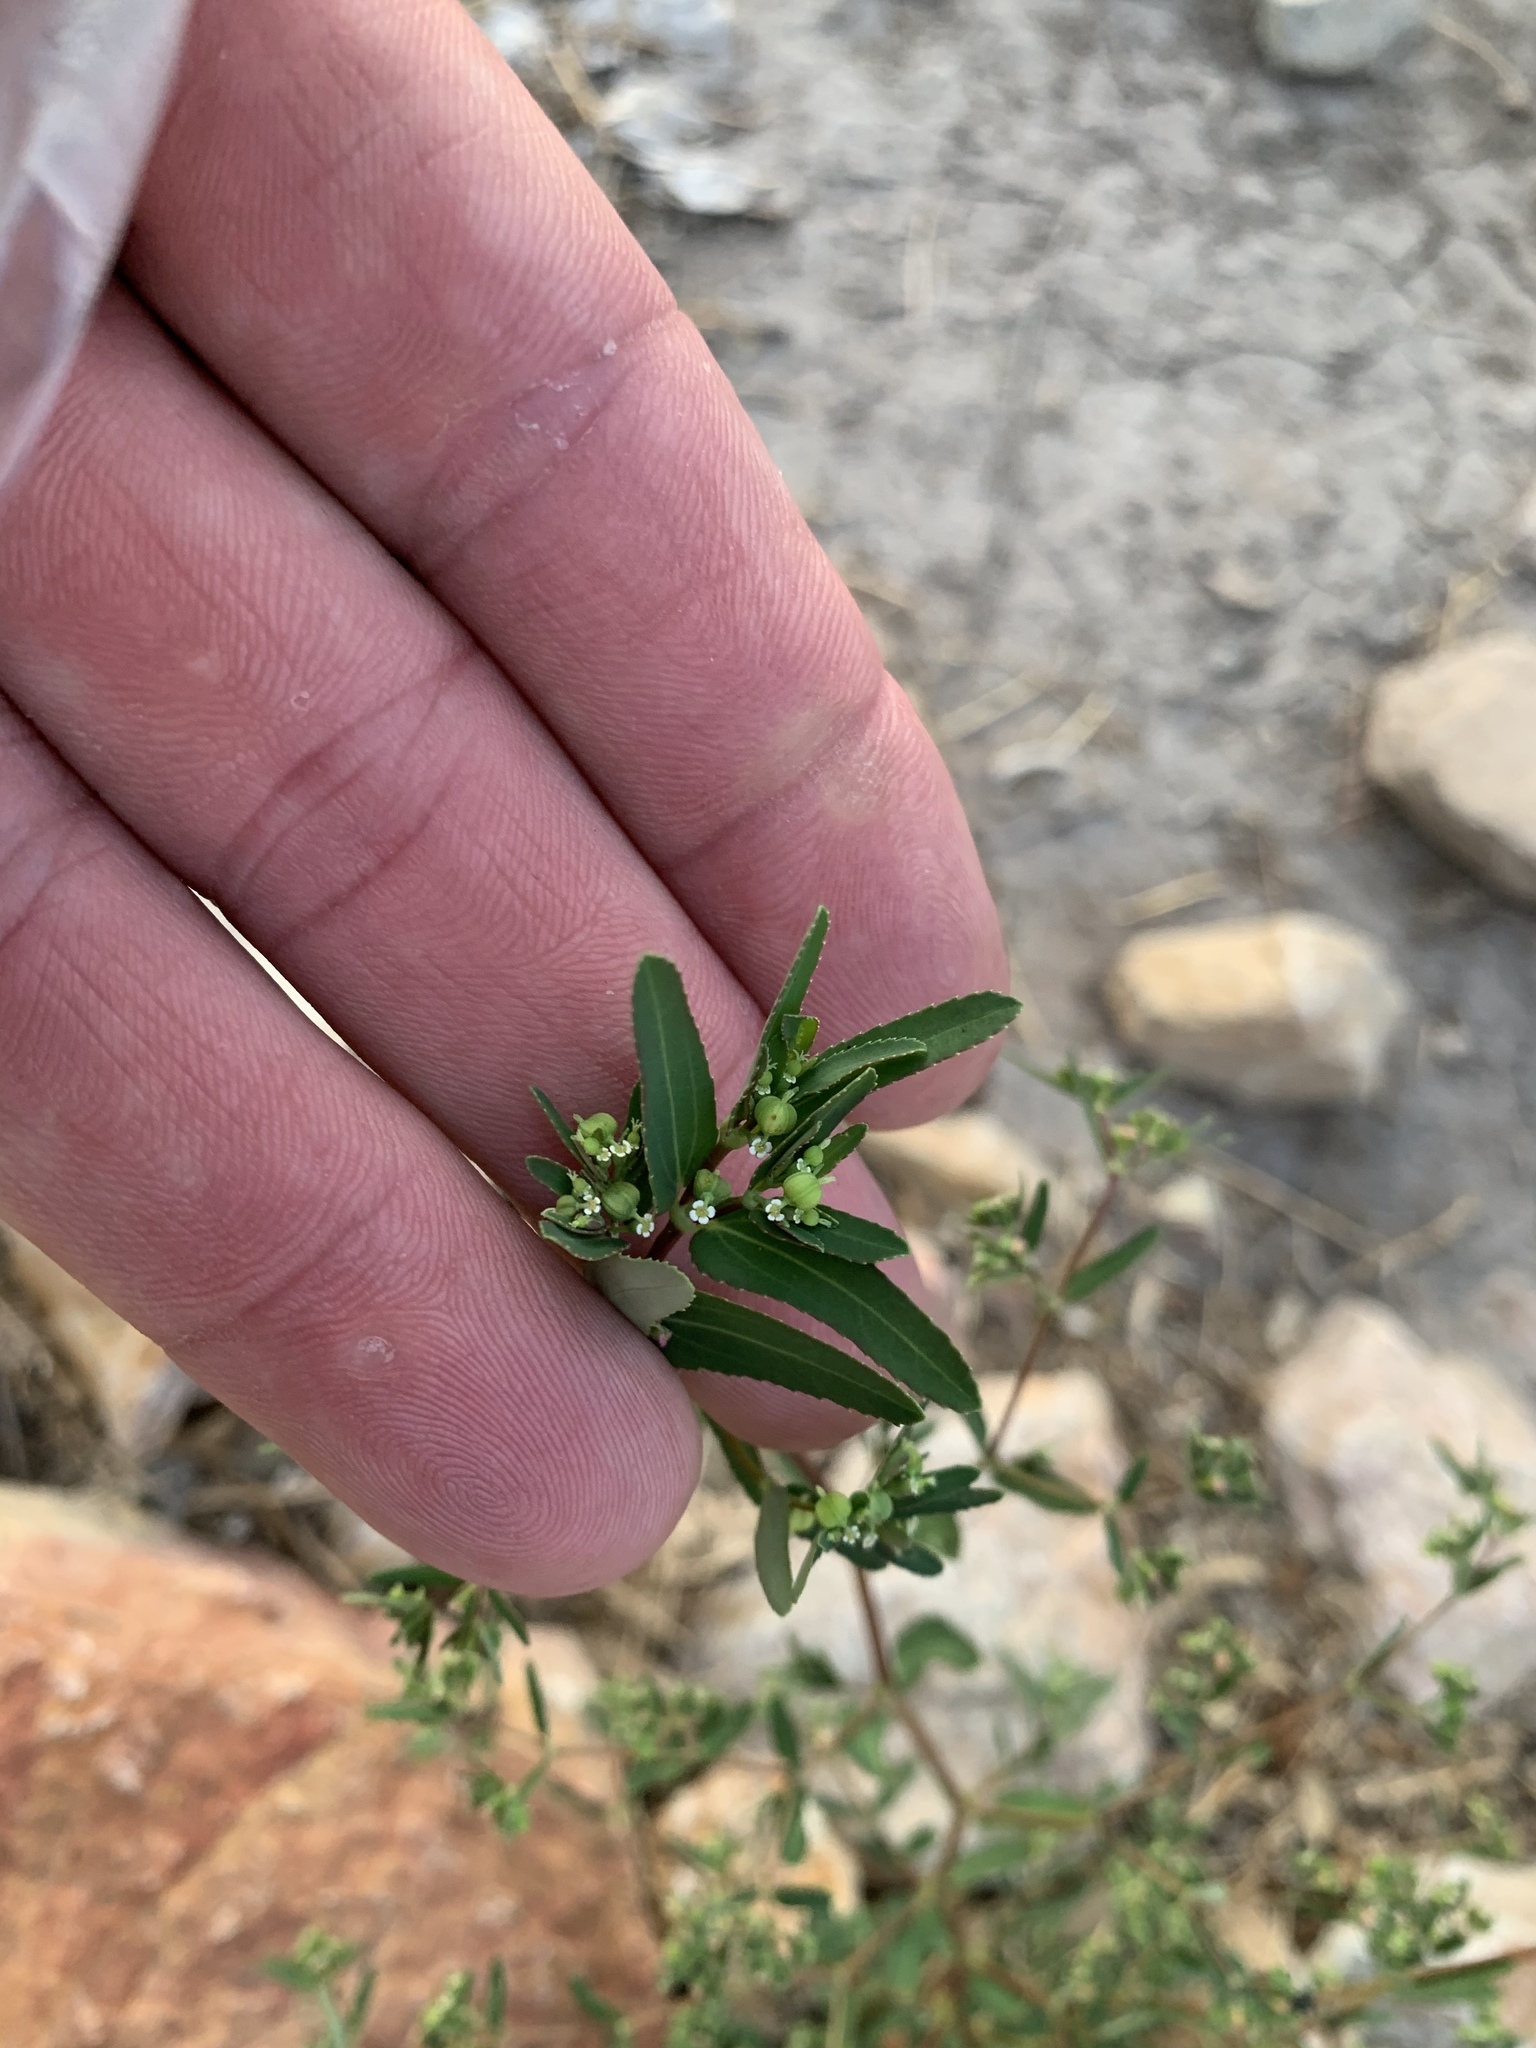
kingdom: Plantae
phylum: Tracheophyta
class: Magnoliopsida
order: Malpighiales
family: Euphorbiaceae
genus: Euphorbia
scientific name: Euphorbia hyssopifolia
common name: Hyssopleaf sandmat
